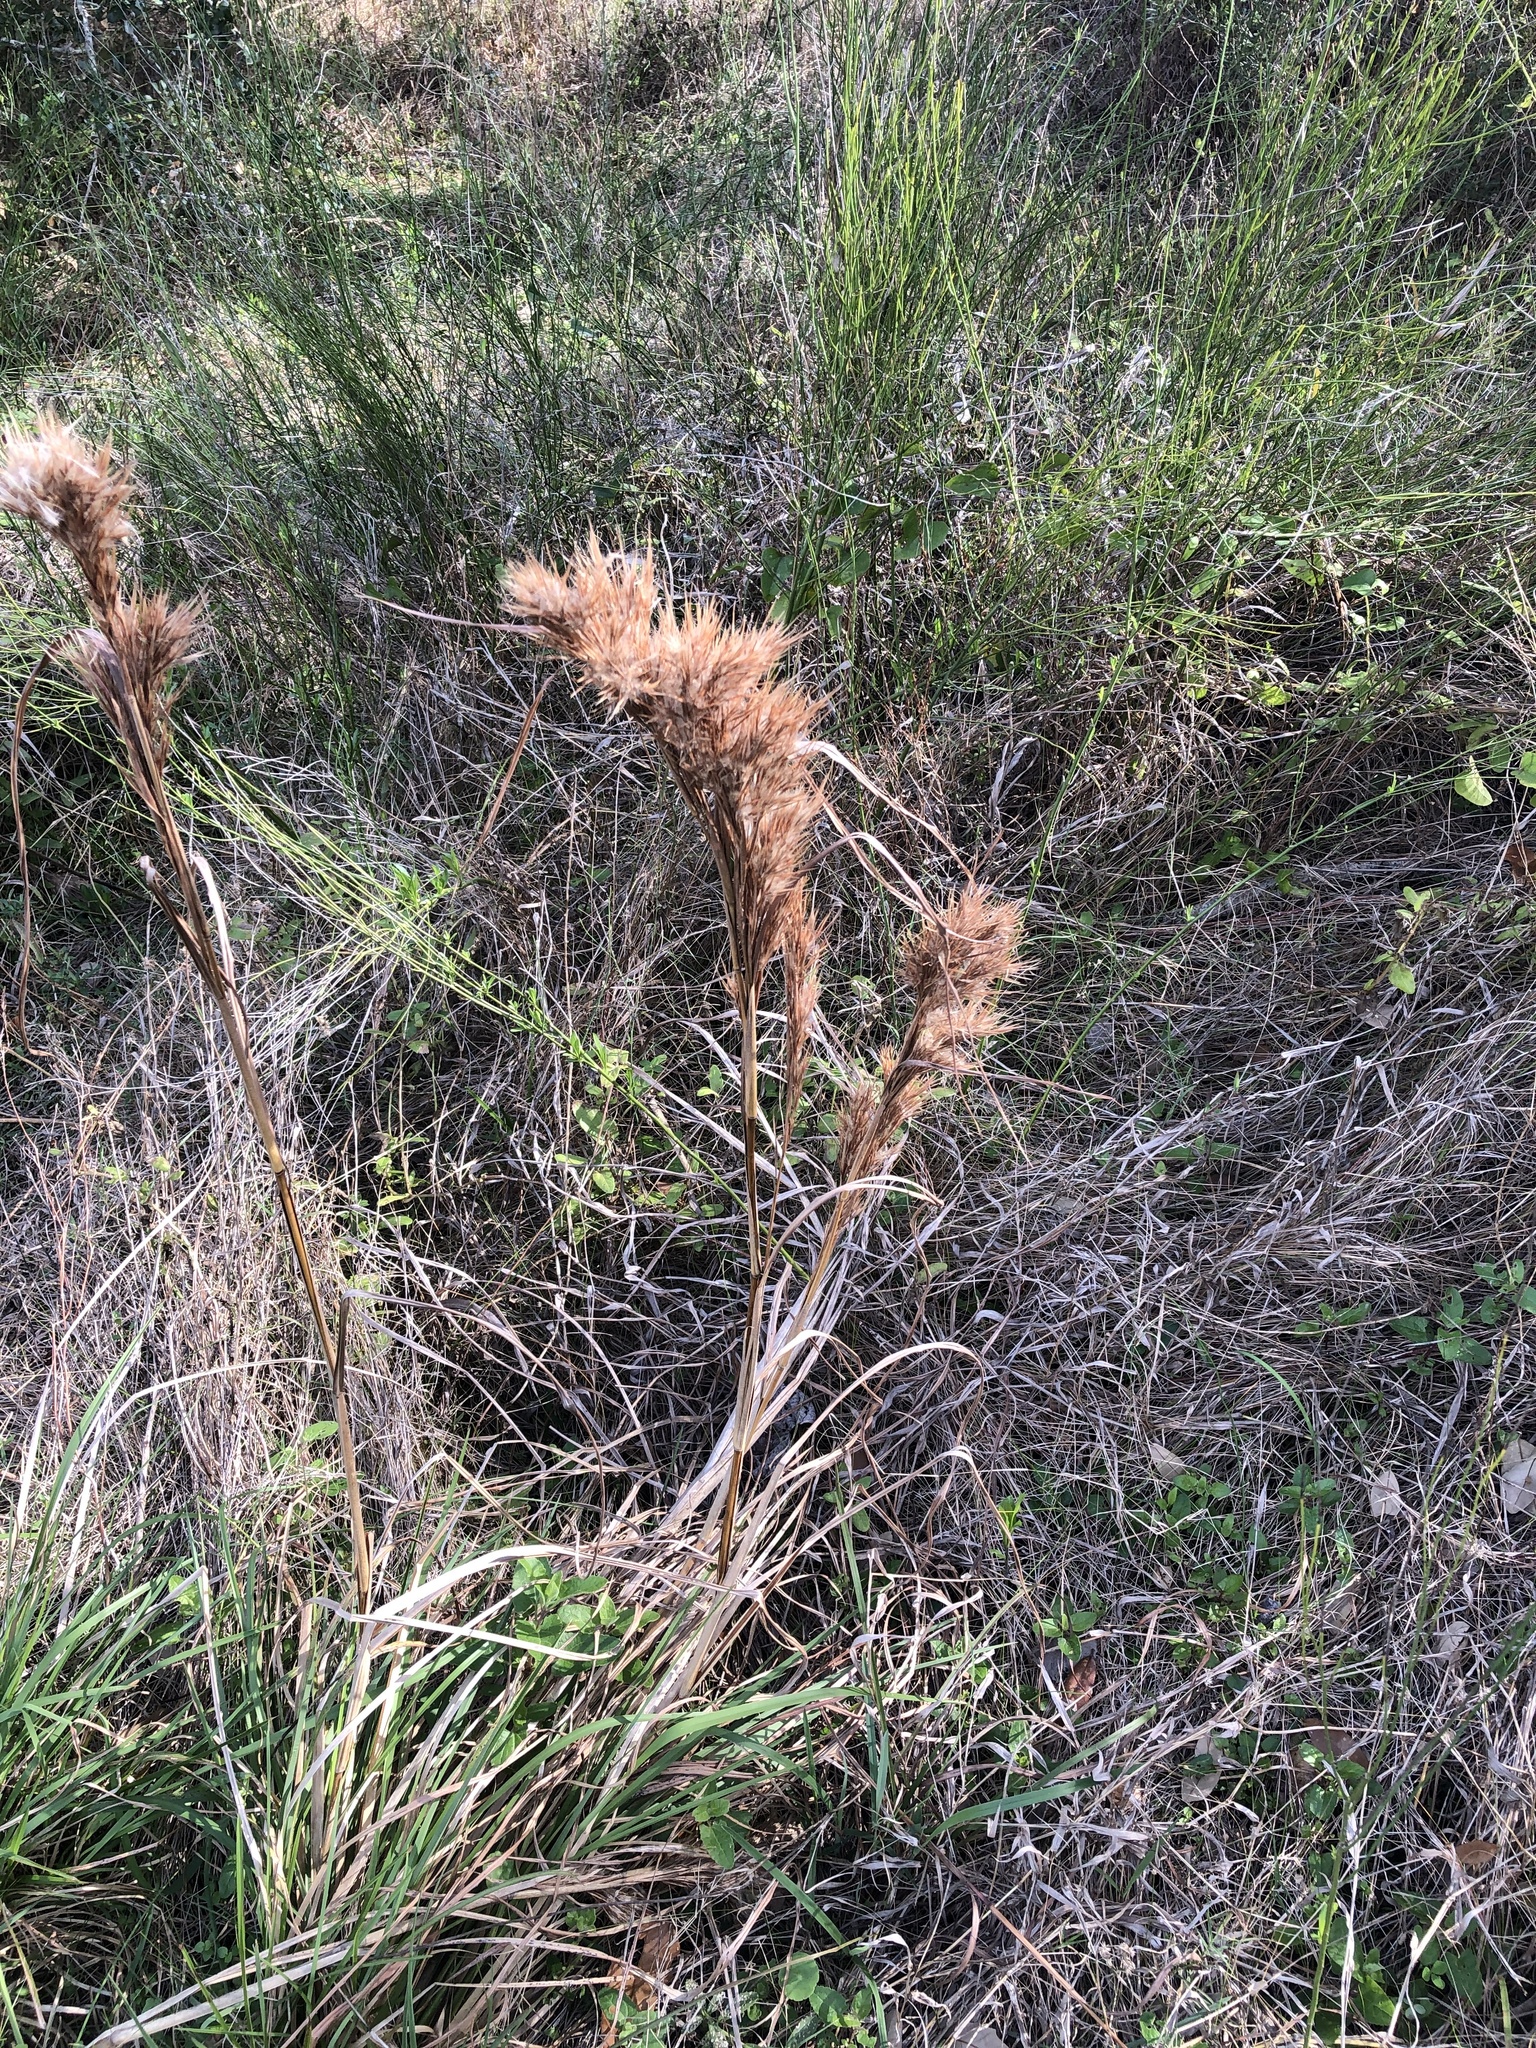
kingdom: Plantae
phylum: Tracheophyta
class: Liliopsida
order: Poales
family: Poaceae
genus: Andropogon
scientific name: Andropogon tenuispatheus
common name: Bushy bluestem
